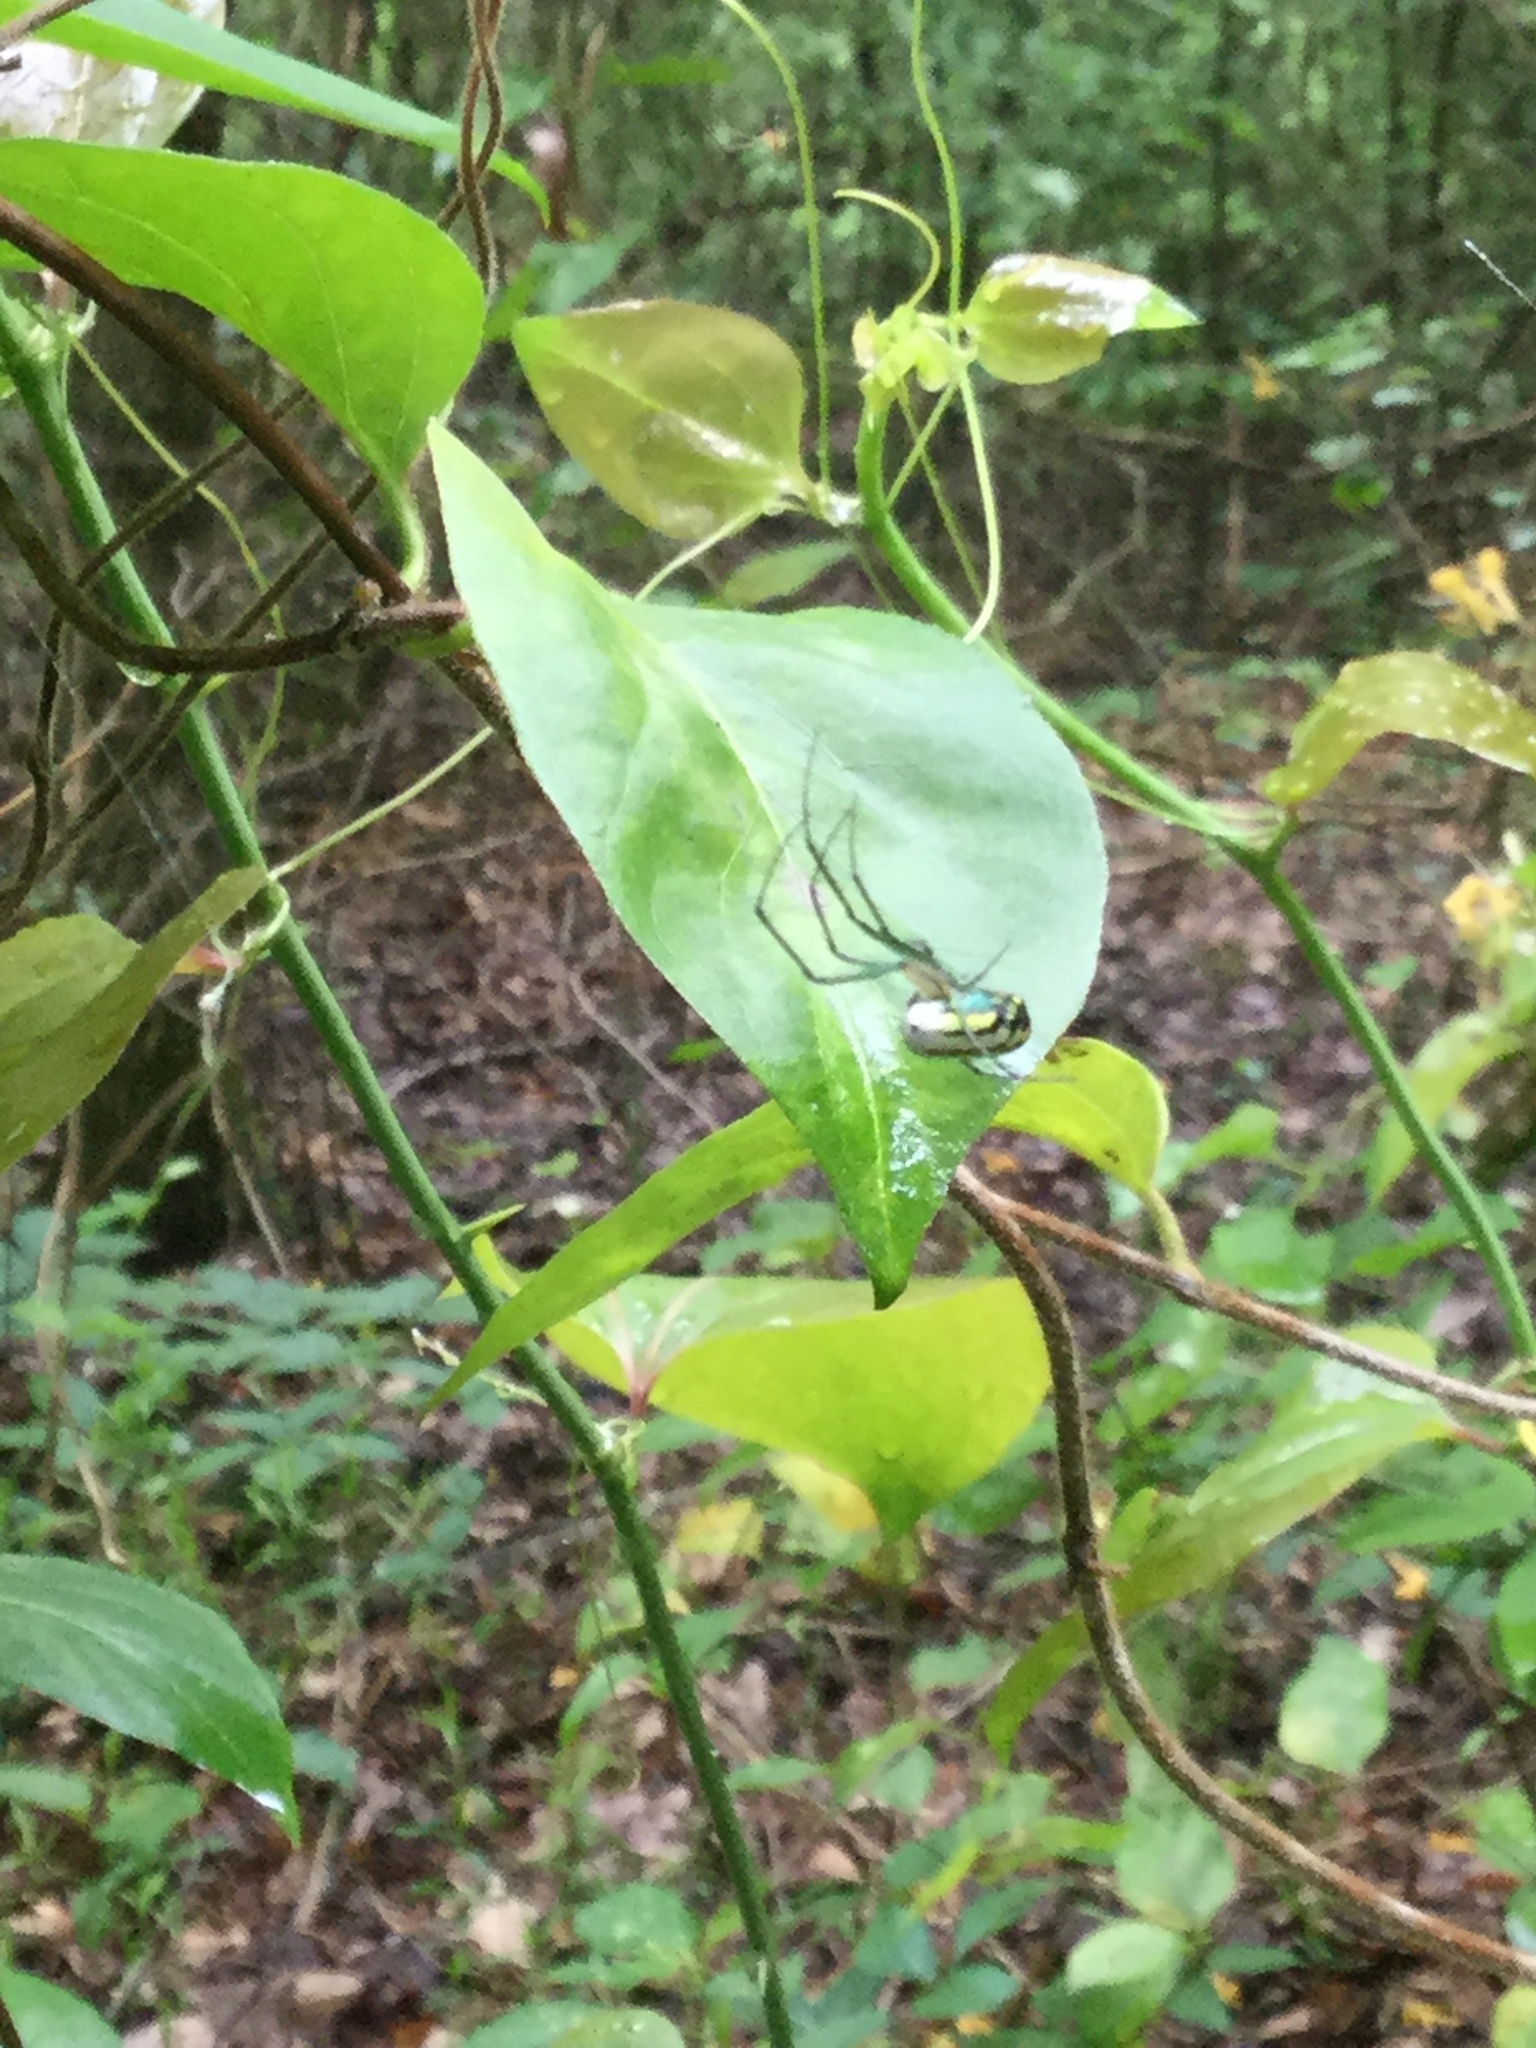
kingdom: Animalia
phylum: Arthropoda
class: Arachnida
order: Araneae
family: Tetragnathidae
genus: Leucauge
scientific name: Leucauge venusta
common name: Longjawed orb weavers
